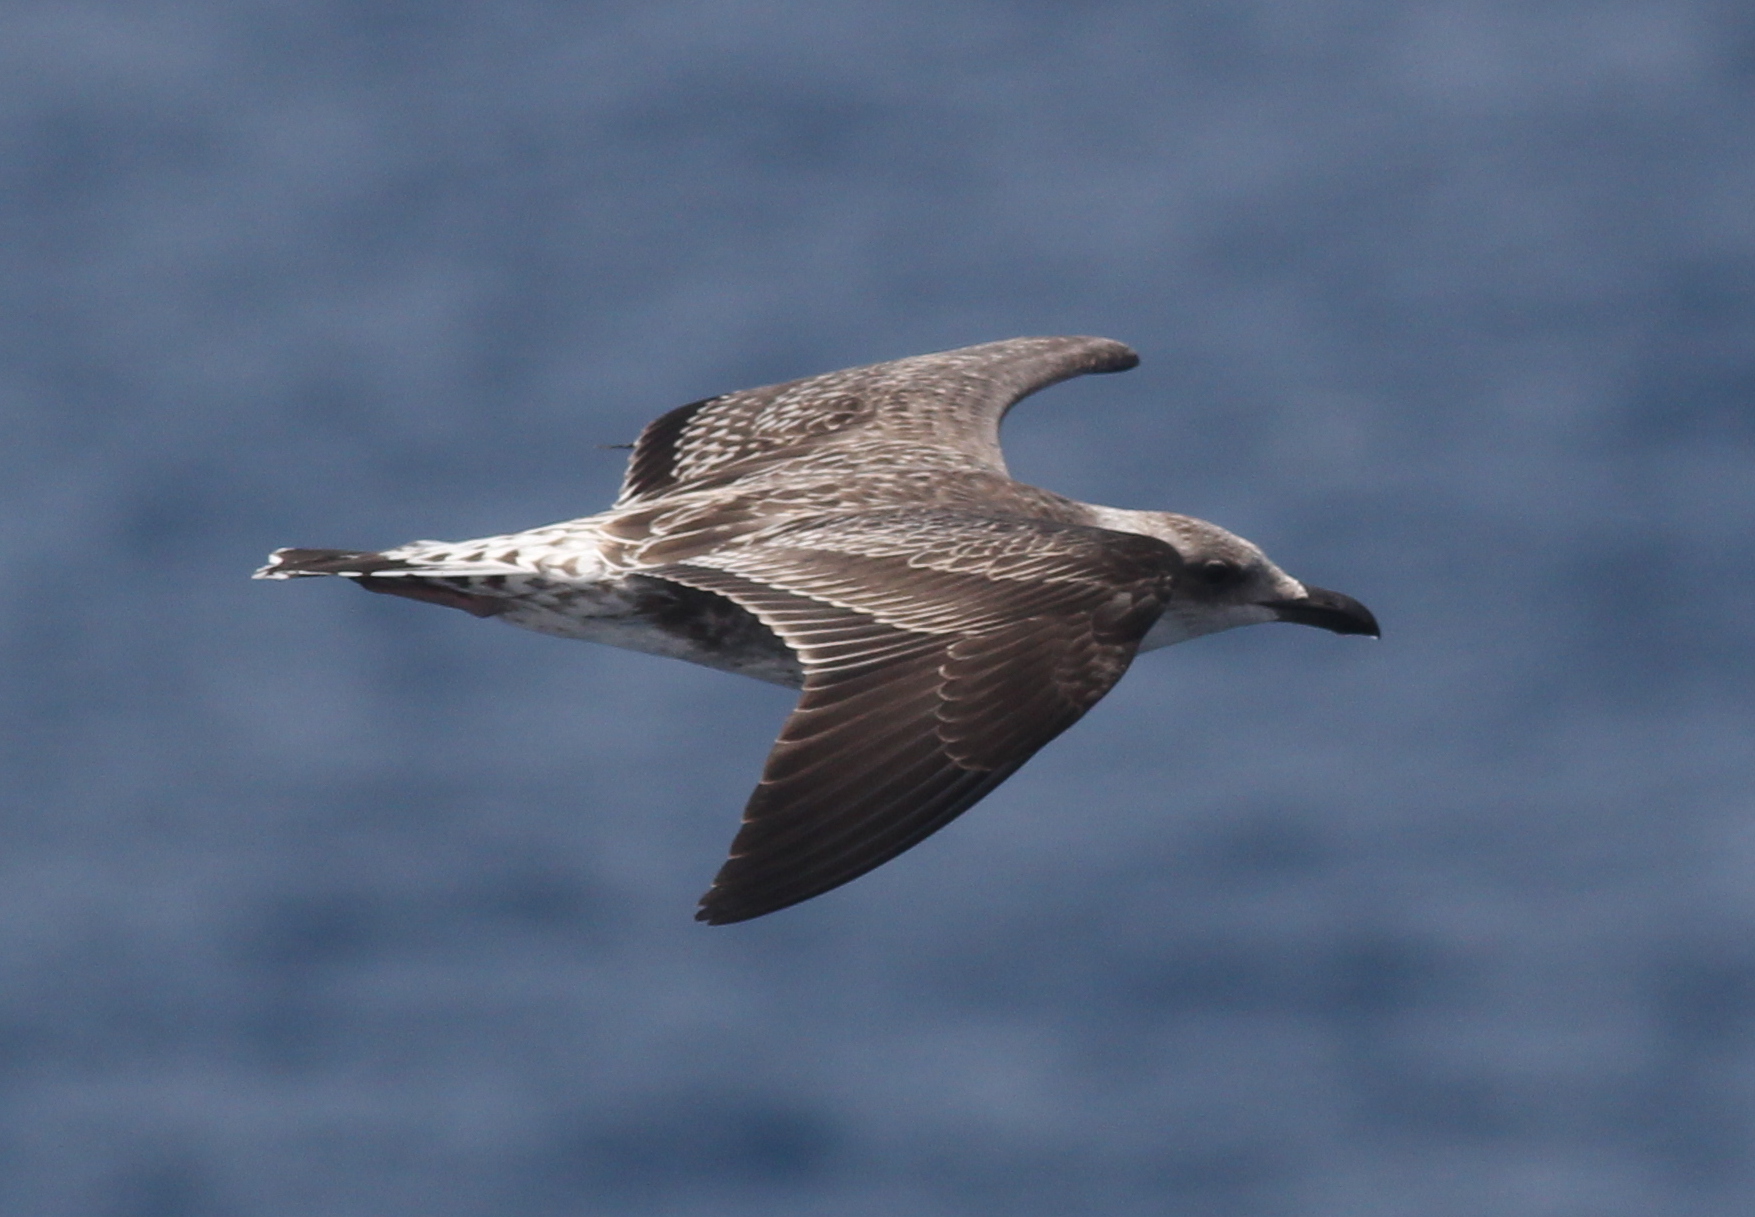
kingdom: Animalia
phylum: Chordata
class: Aves
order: Charadriiformes
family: Laridae
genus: Larus
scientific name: Larus michahellis
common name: Yellow-legged gull
